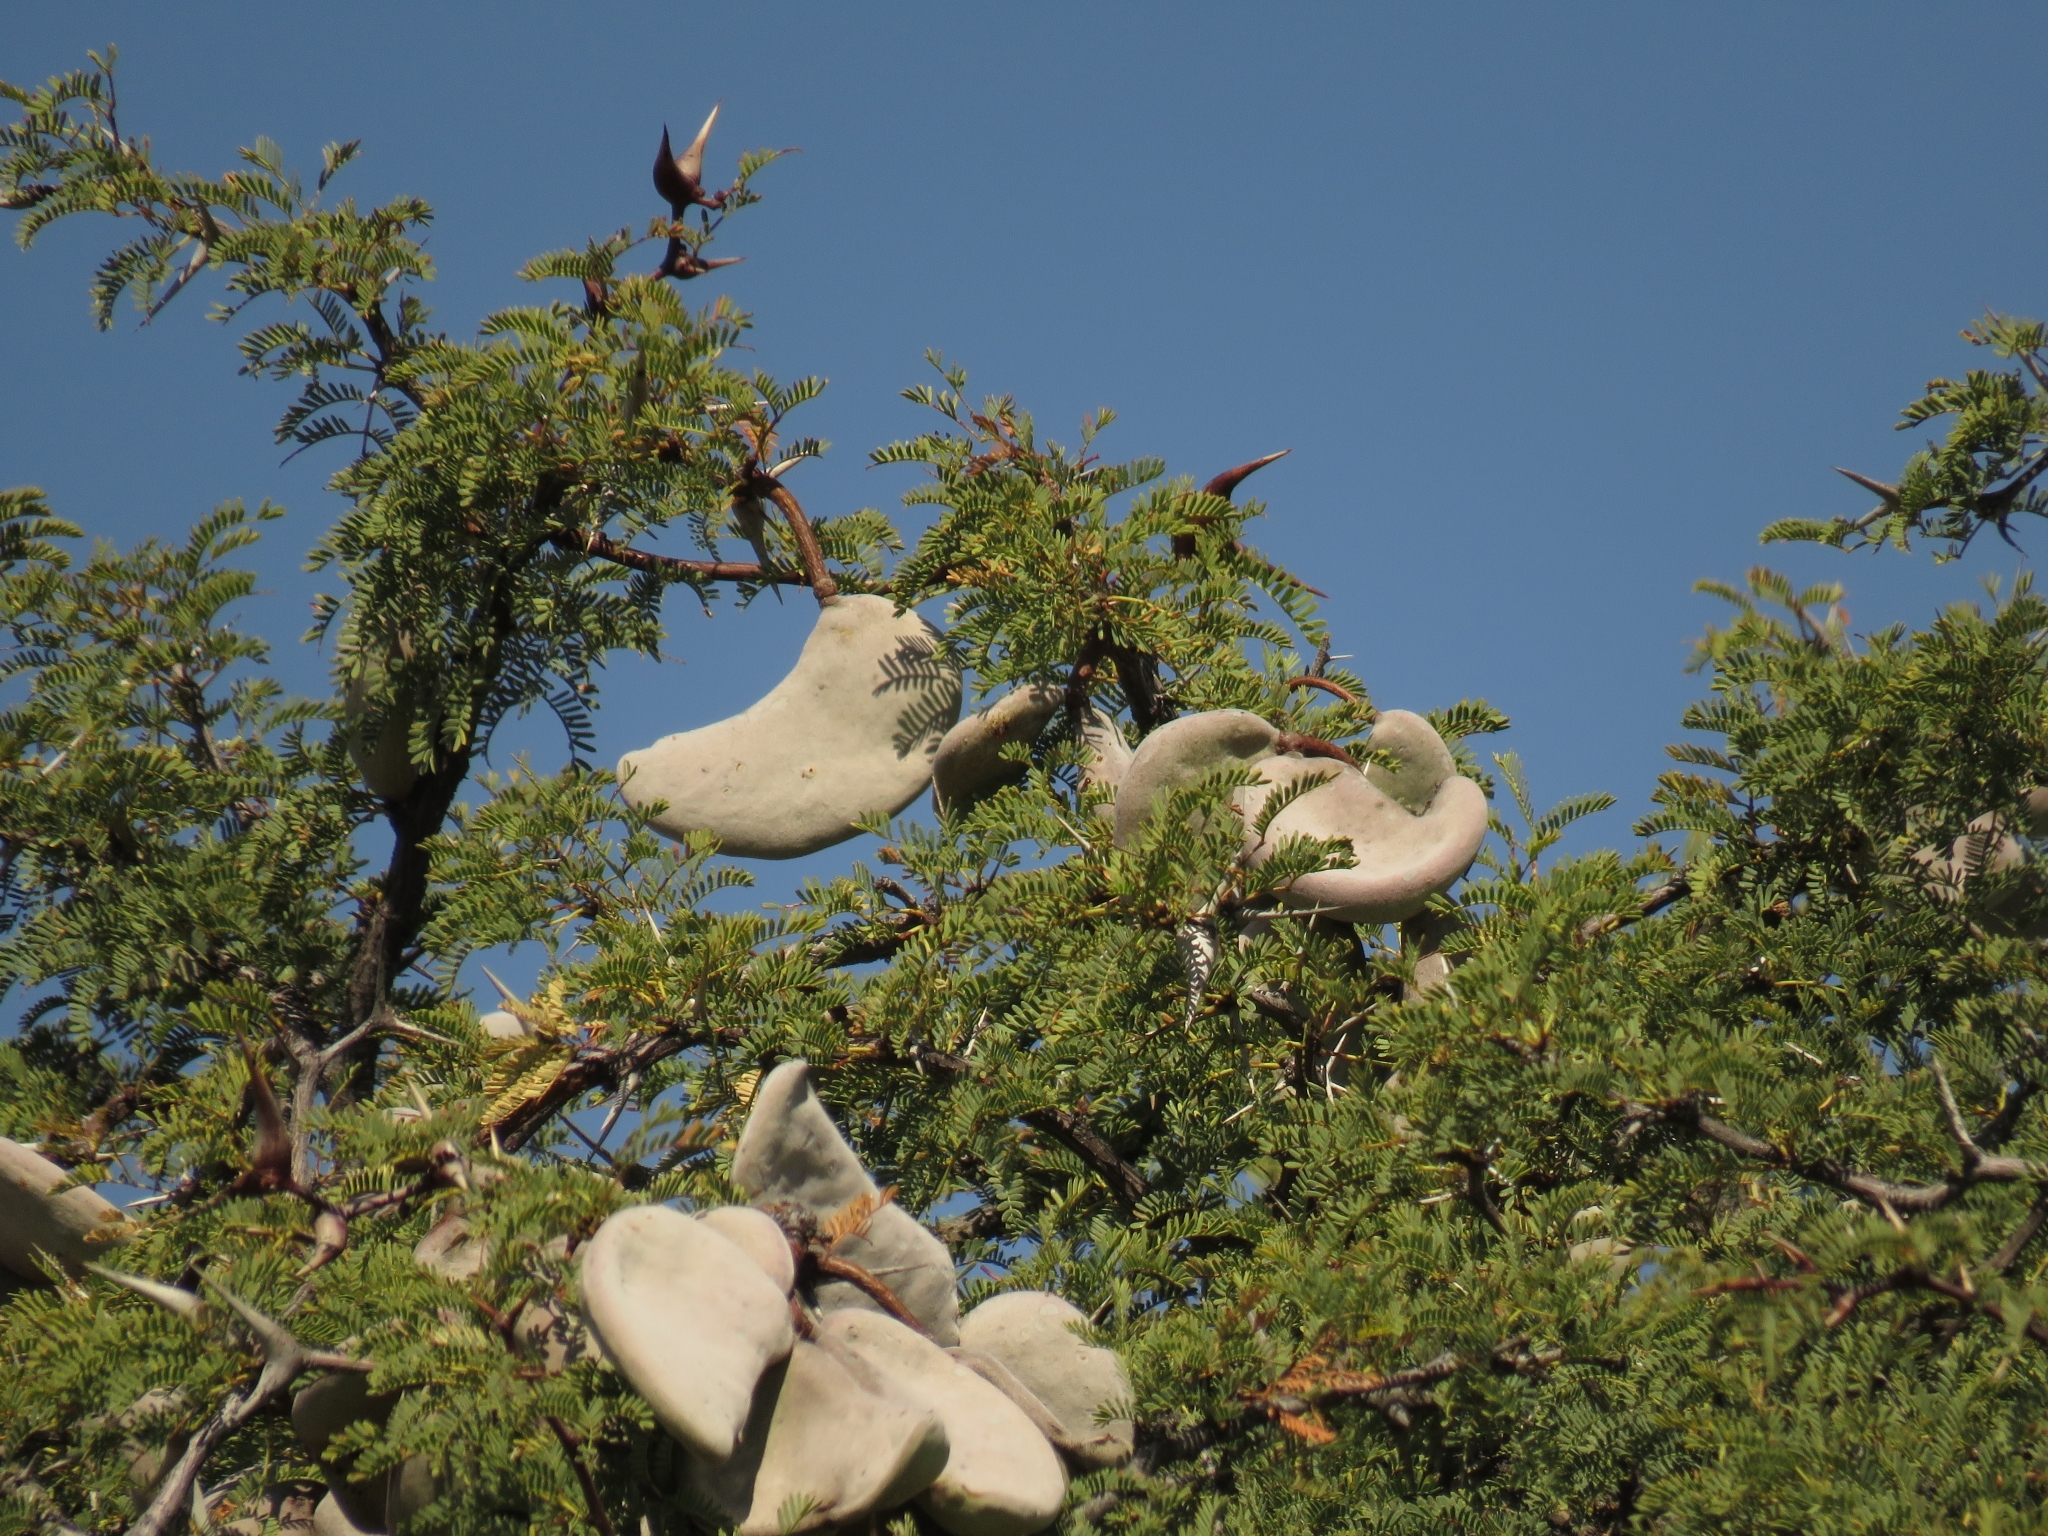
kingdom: Plantae
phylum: Tracheophyta
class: Magnoliopsida
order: Fabales
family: Fabaceae
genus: Vachellia
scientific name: Vachellia erioloba
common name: Camel thorn
